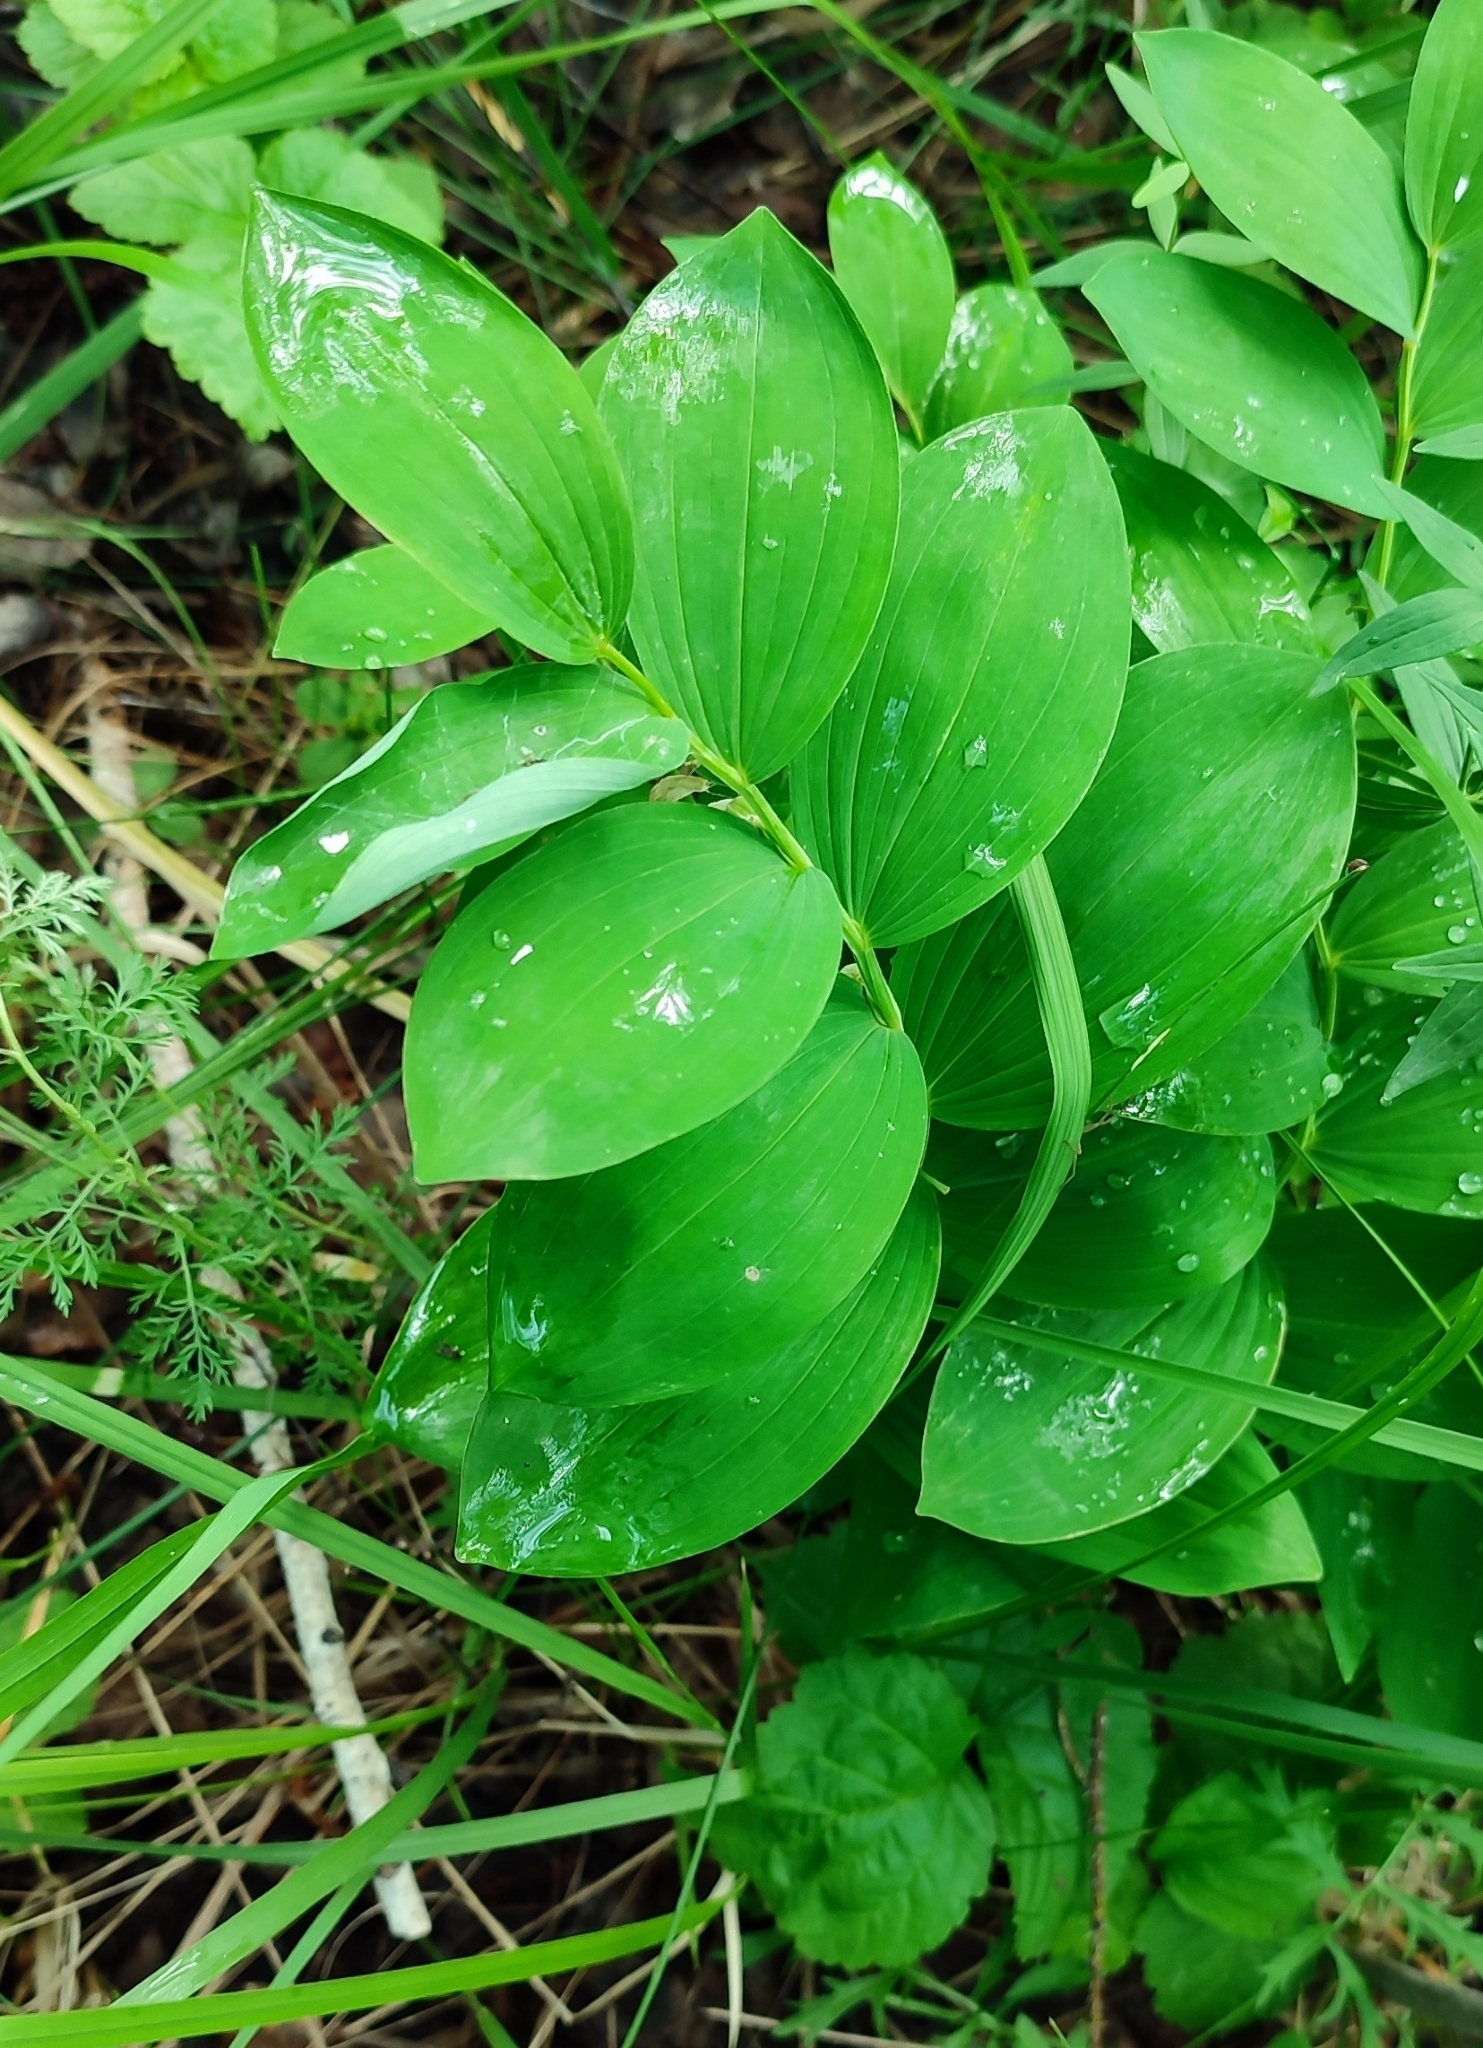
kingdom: Plantae
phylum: Tracheophyta
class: Liliopsida
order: Asparagales
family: Asparagaceae
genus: Polygonatum
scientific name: Polygonatum odoratum
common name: Angular solomon's-seal
